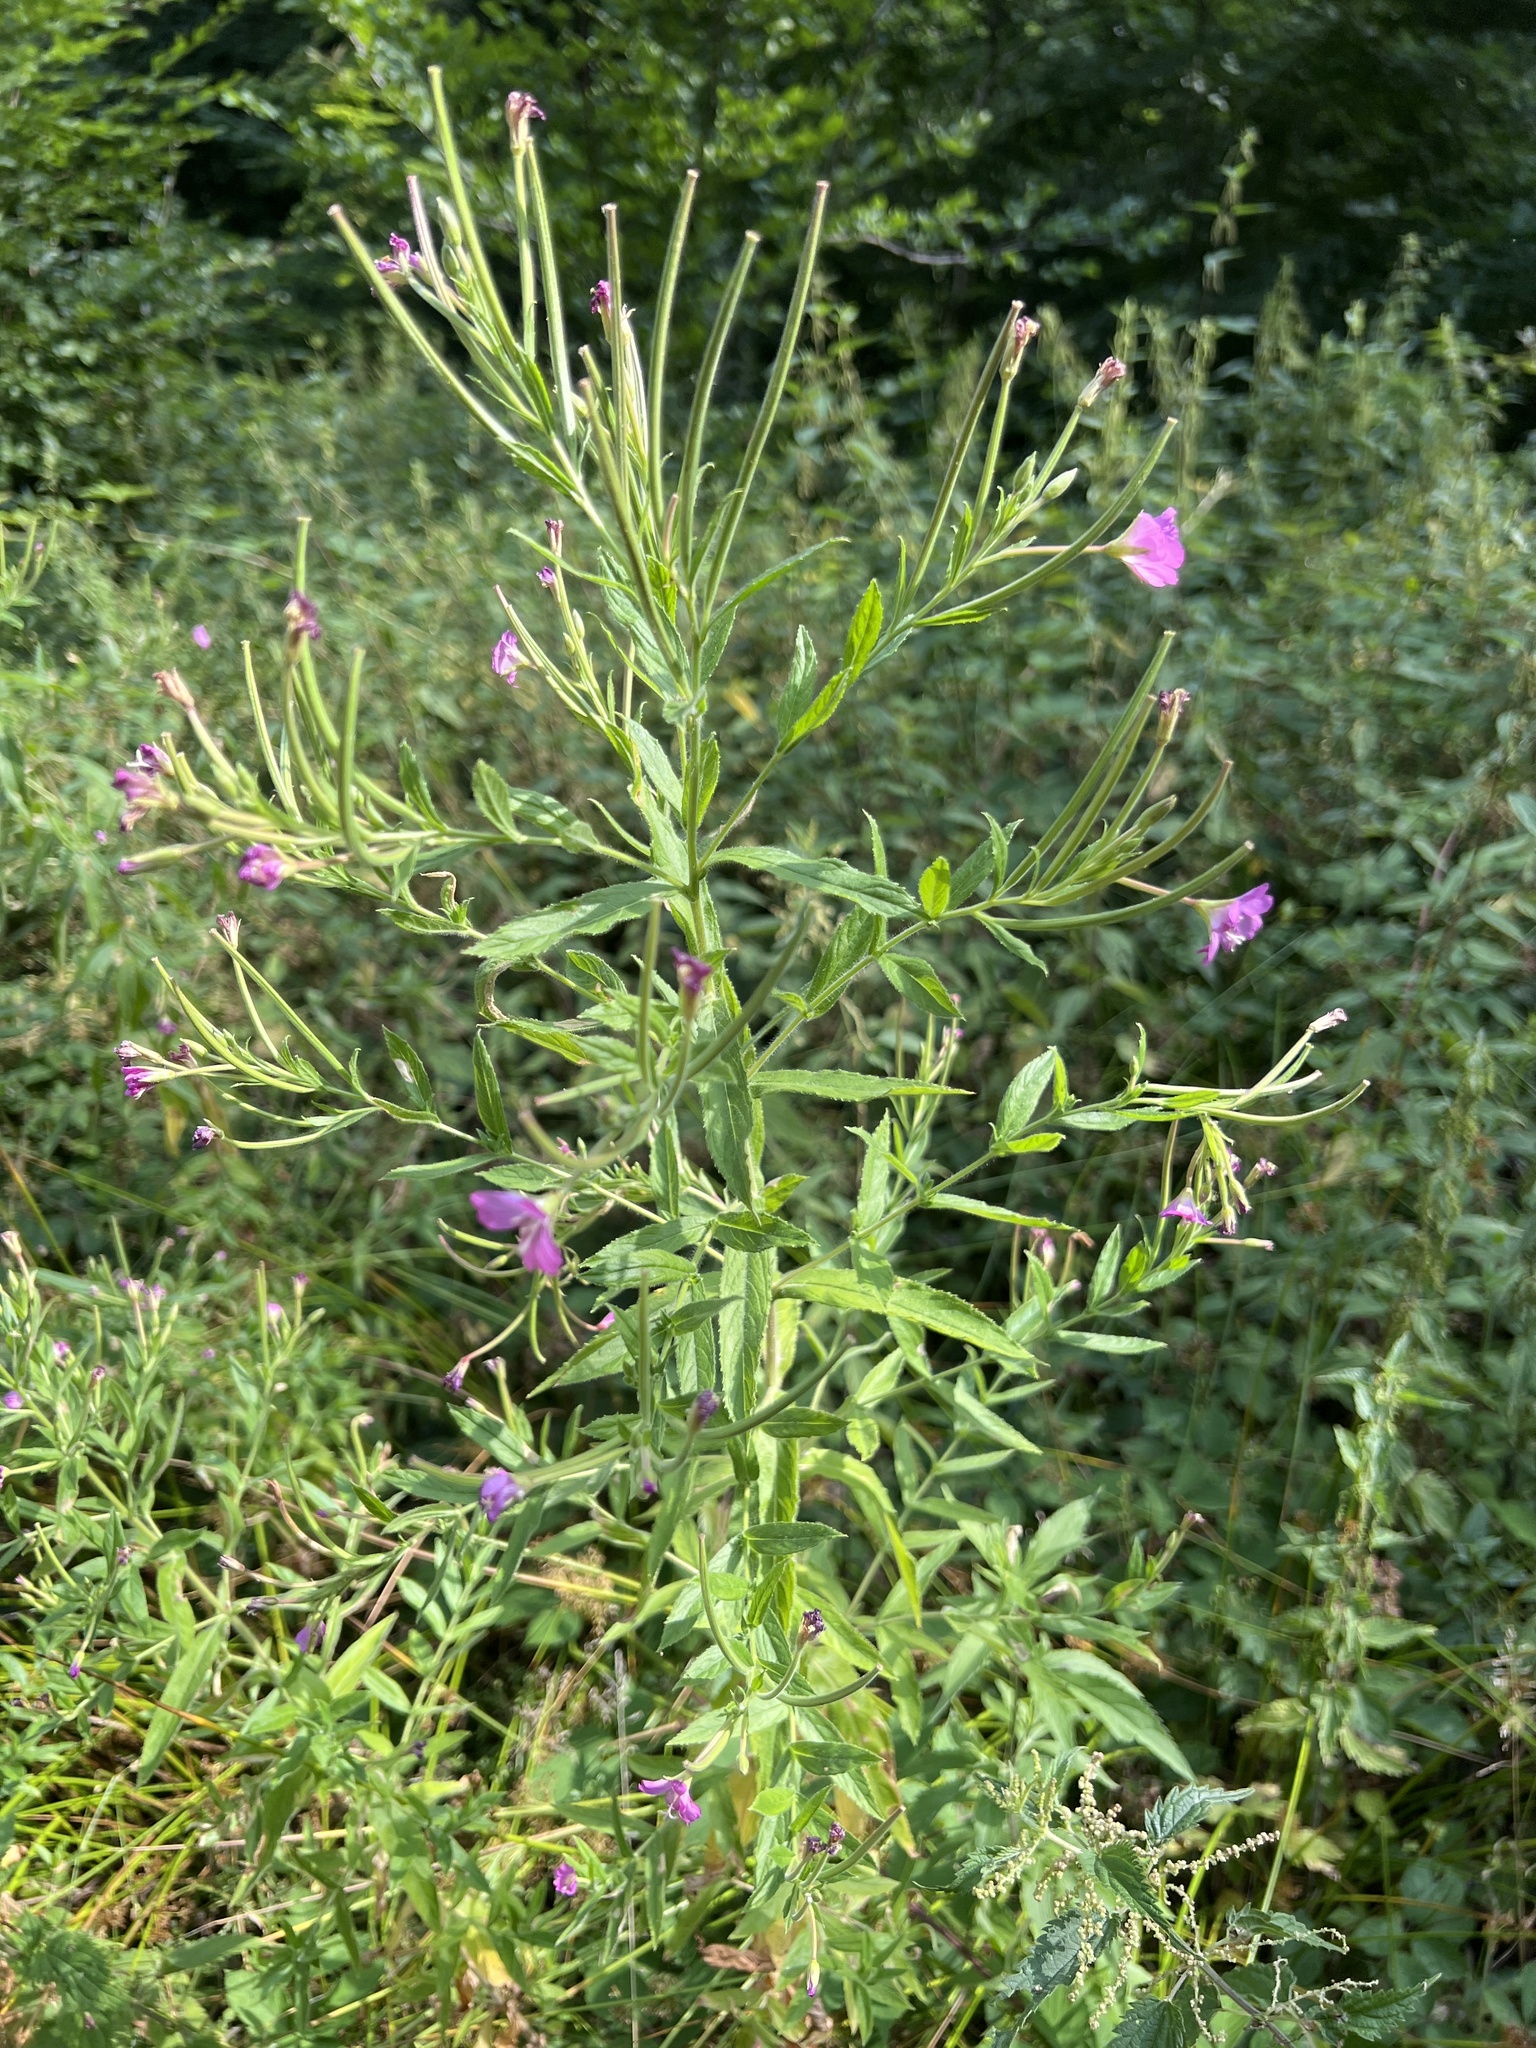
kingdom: Plantae
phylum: Tracheophyta
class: Magnoliopsida
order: Myrtales
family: Onagraceae
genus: Epilobium
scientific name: Epilobium hirsutum
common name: Great willowherb
